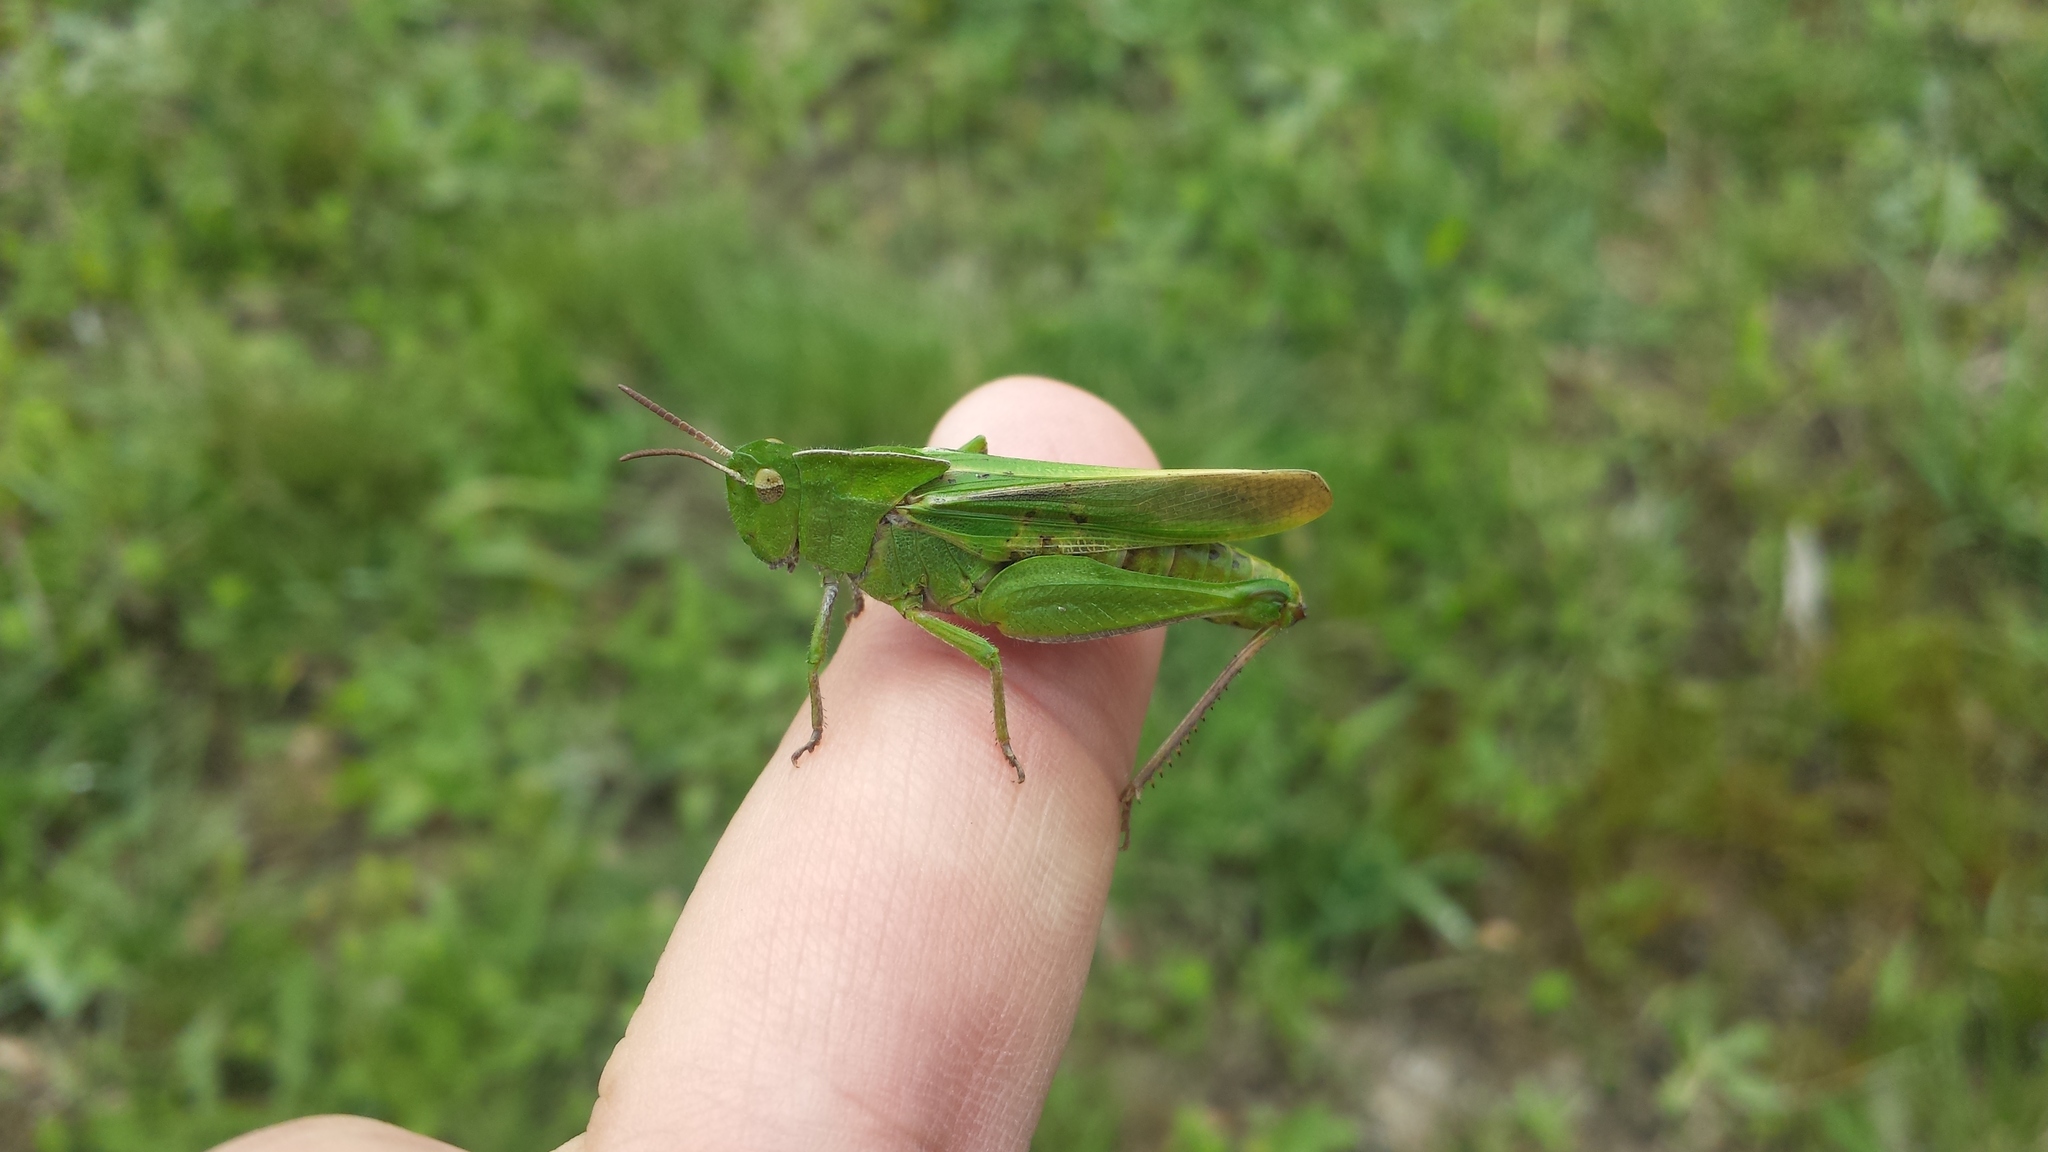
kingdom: Animalia
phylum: Arthropoda
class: Insecta
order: Orthoptera
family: Acrididae
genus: Chortophaga
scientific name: Chortophaga mendocino
